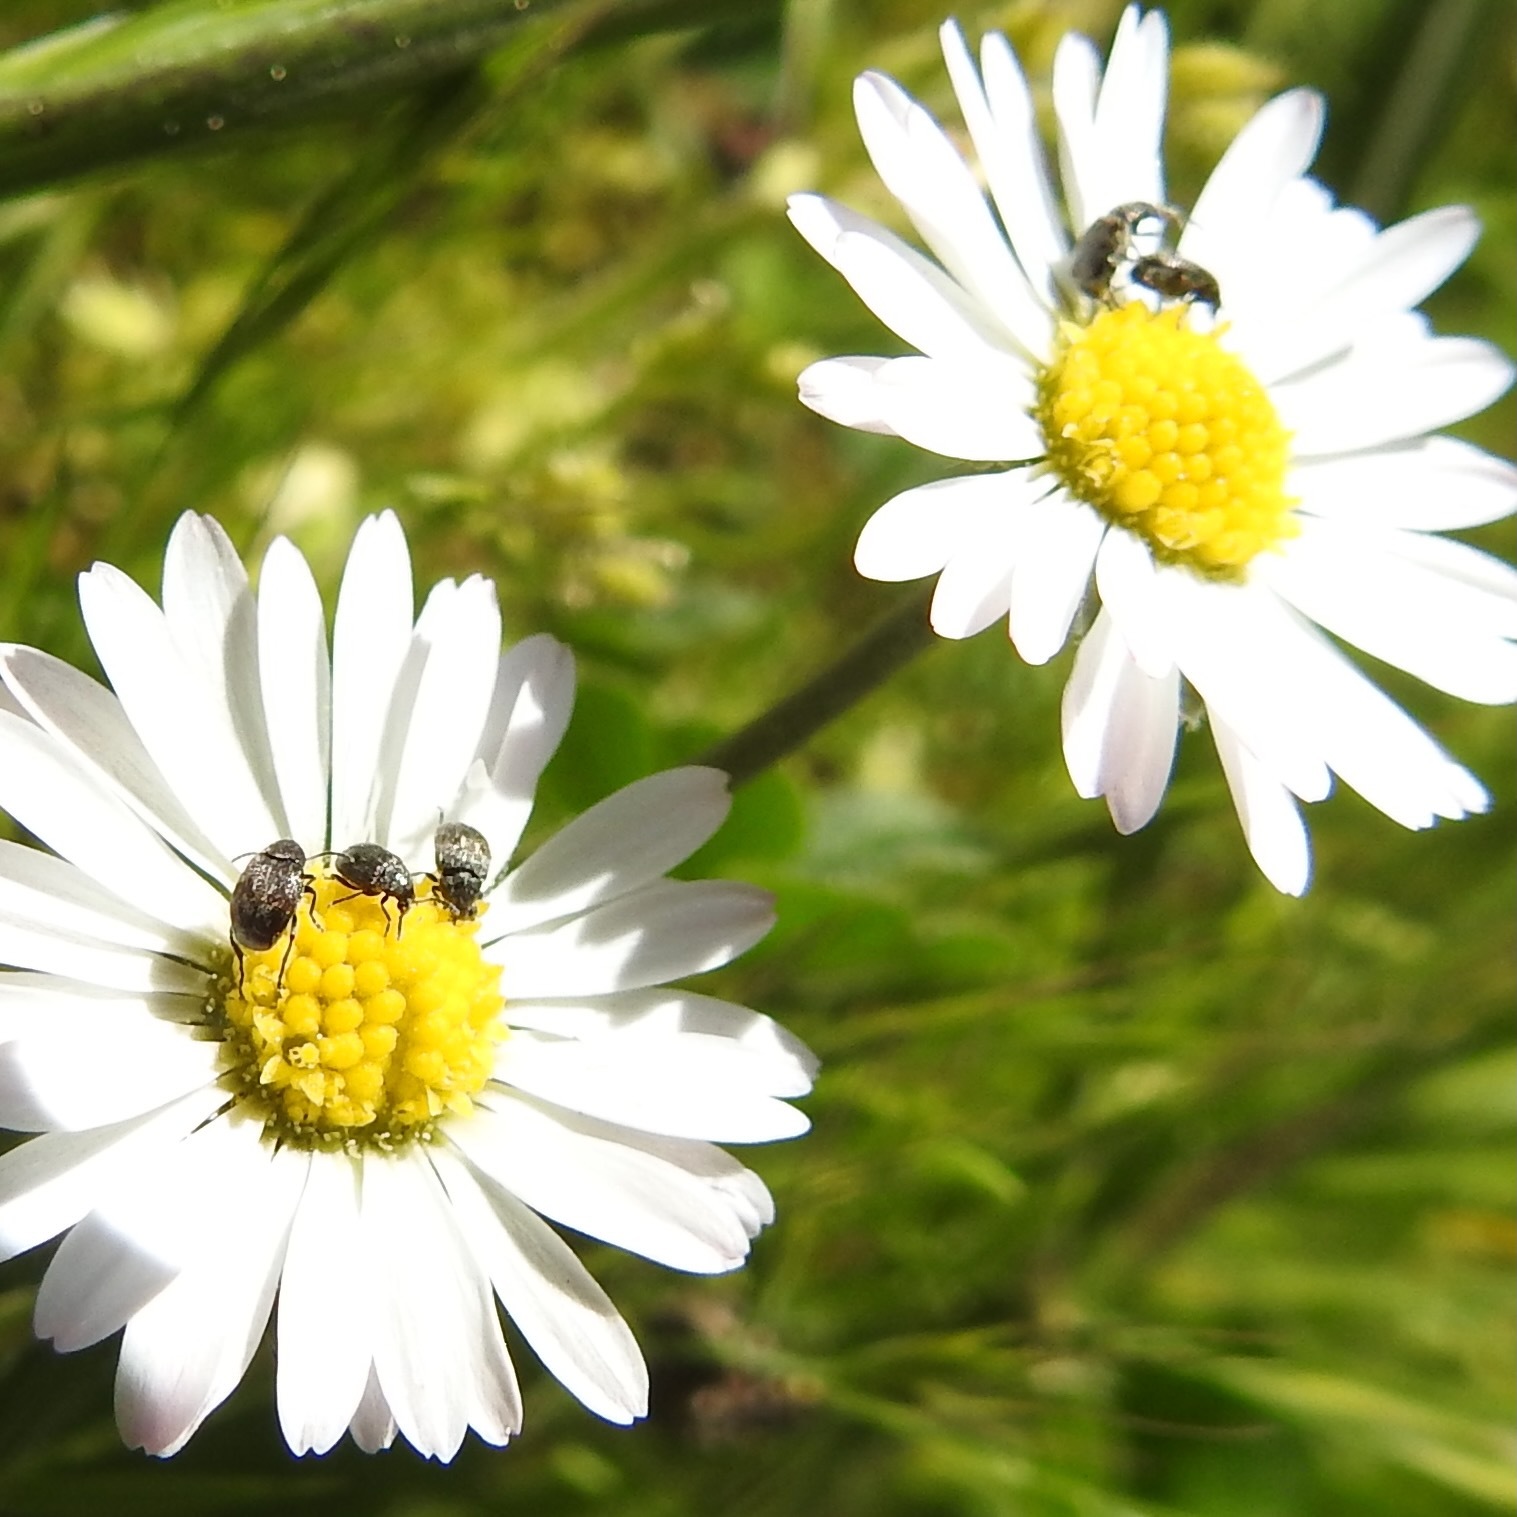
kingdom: Plantae
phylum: Tracheophyta
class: Magnoliopsida
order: Asterales
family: Asteraceae
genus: Bellis
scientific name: Bellis perennis
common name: Lawndaisy
